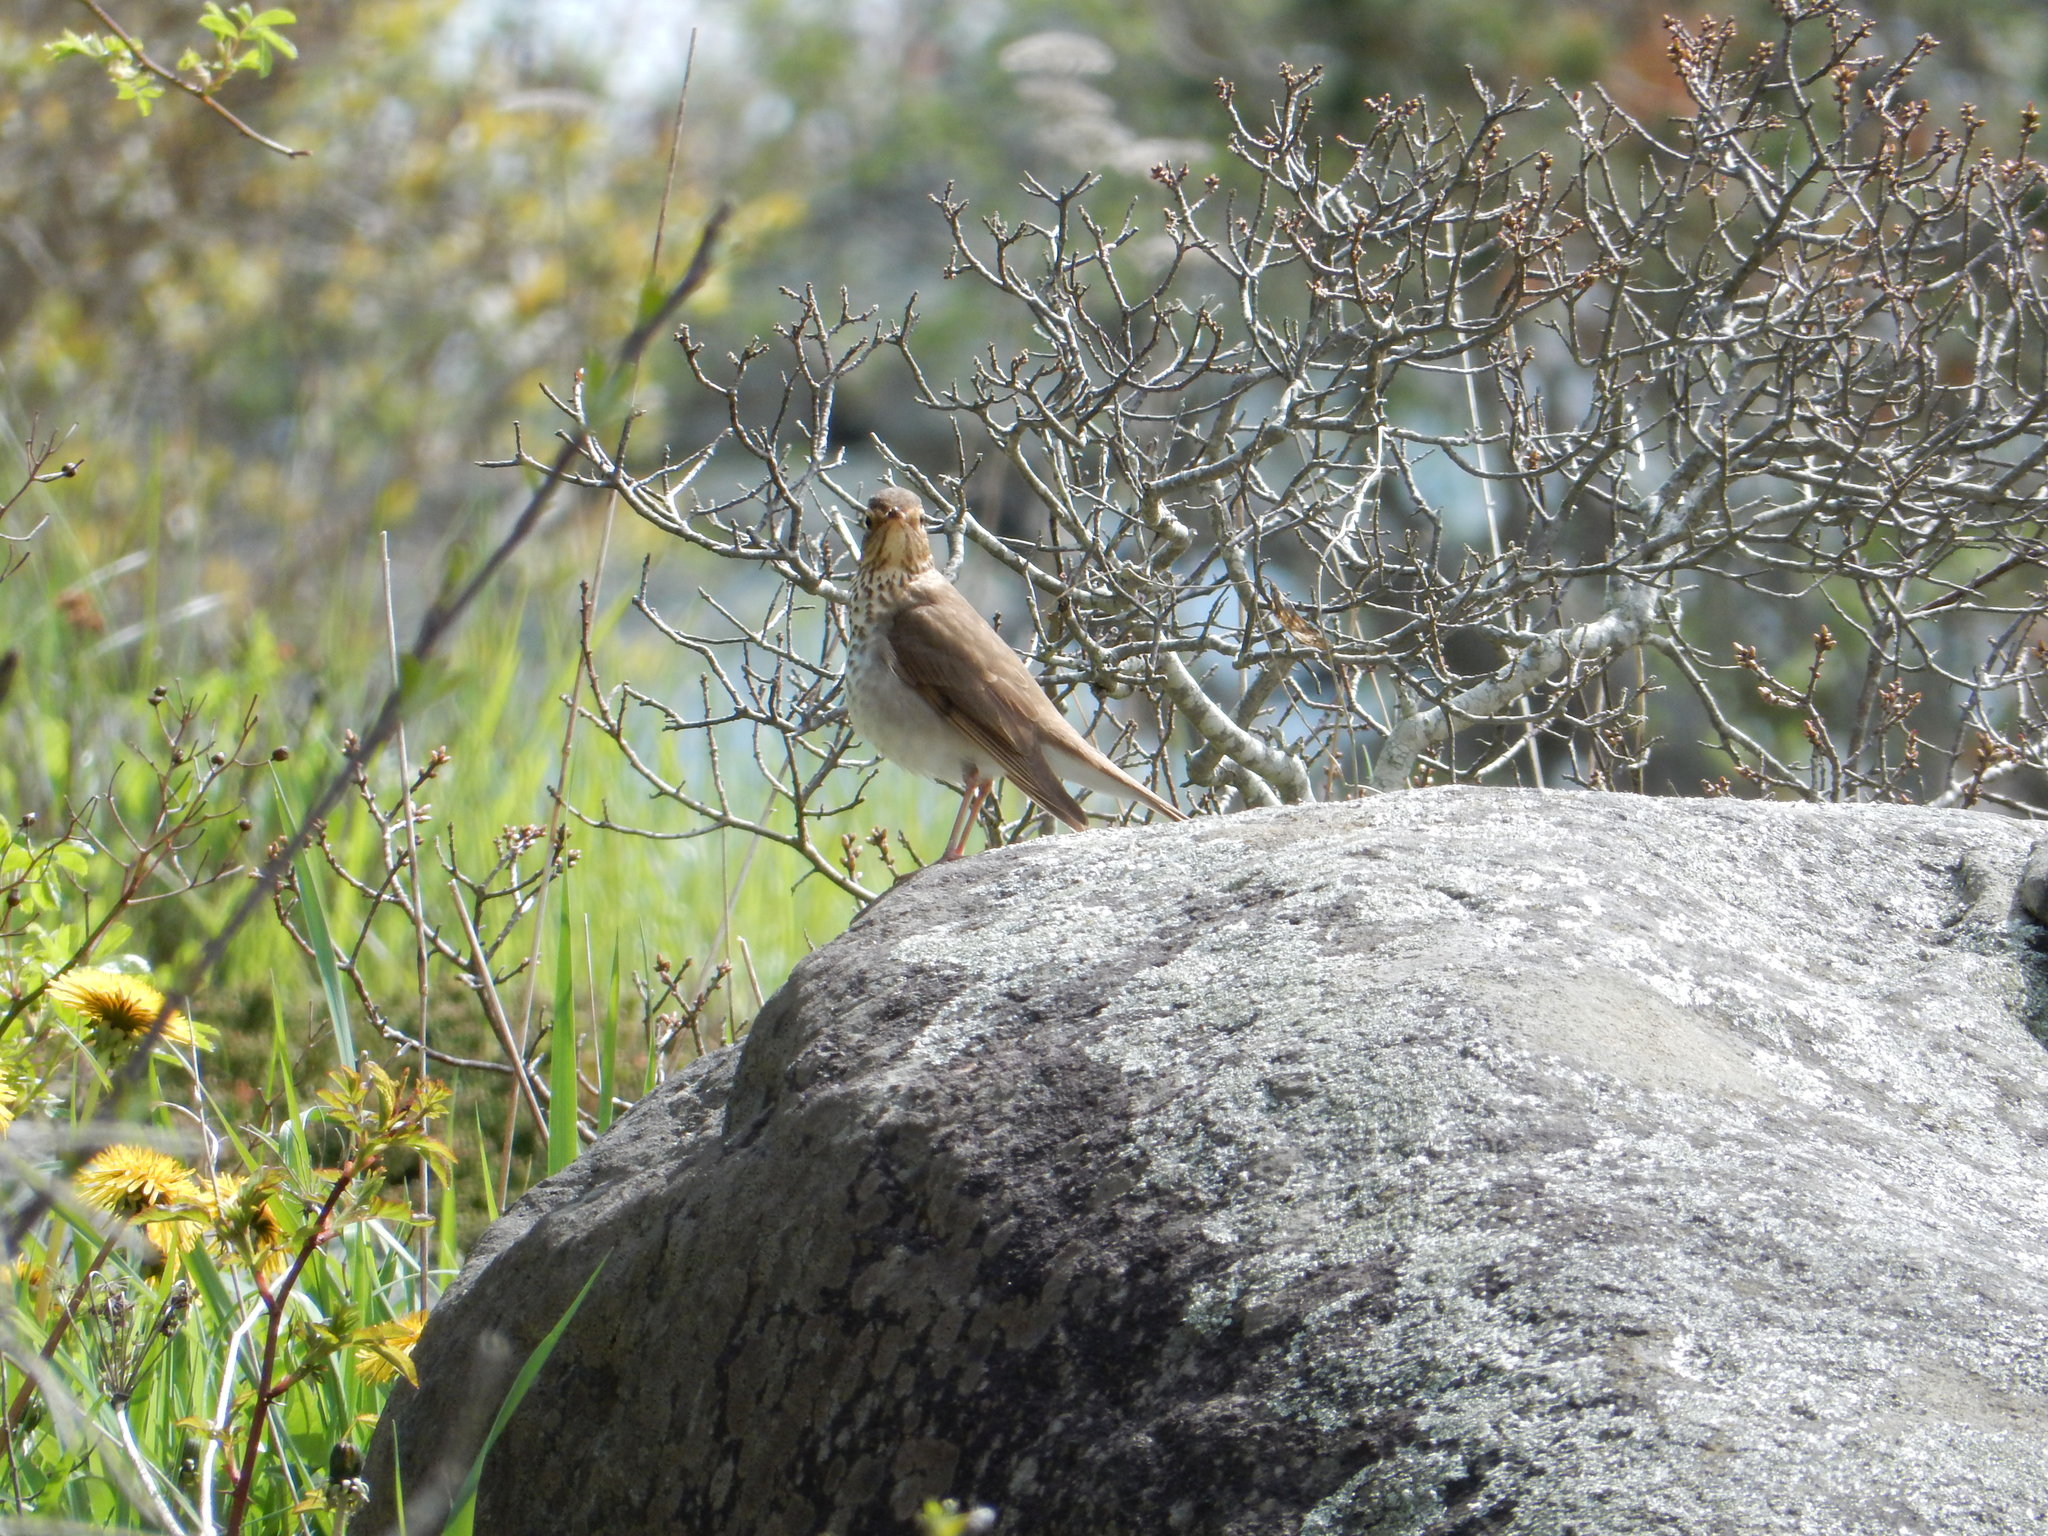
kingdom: Animalia
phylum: Chordata
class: Aves
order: Passeriformes
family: Turdidae
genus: Catharus
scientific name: Catharus ustulatus
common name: Swainson's thrush
